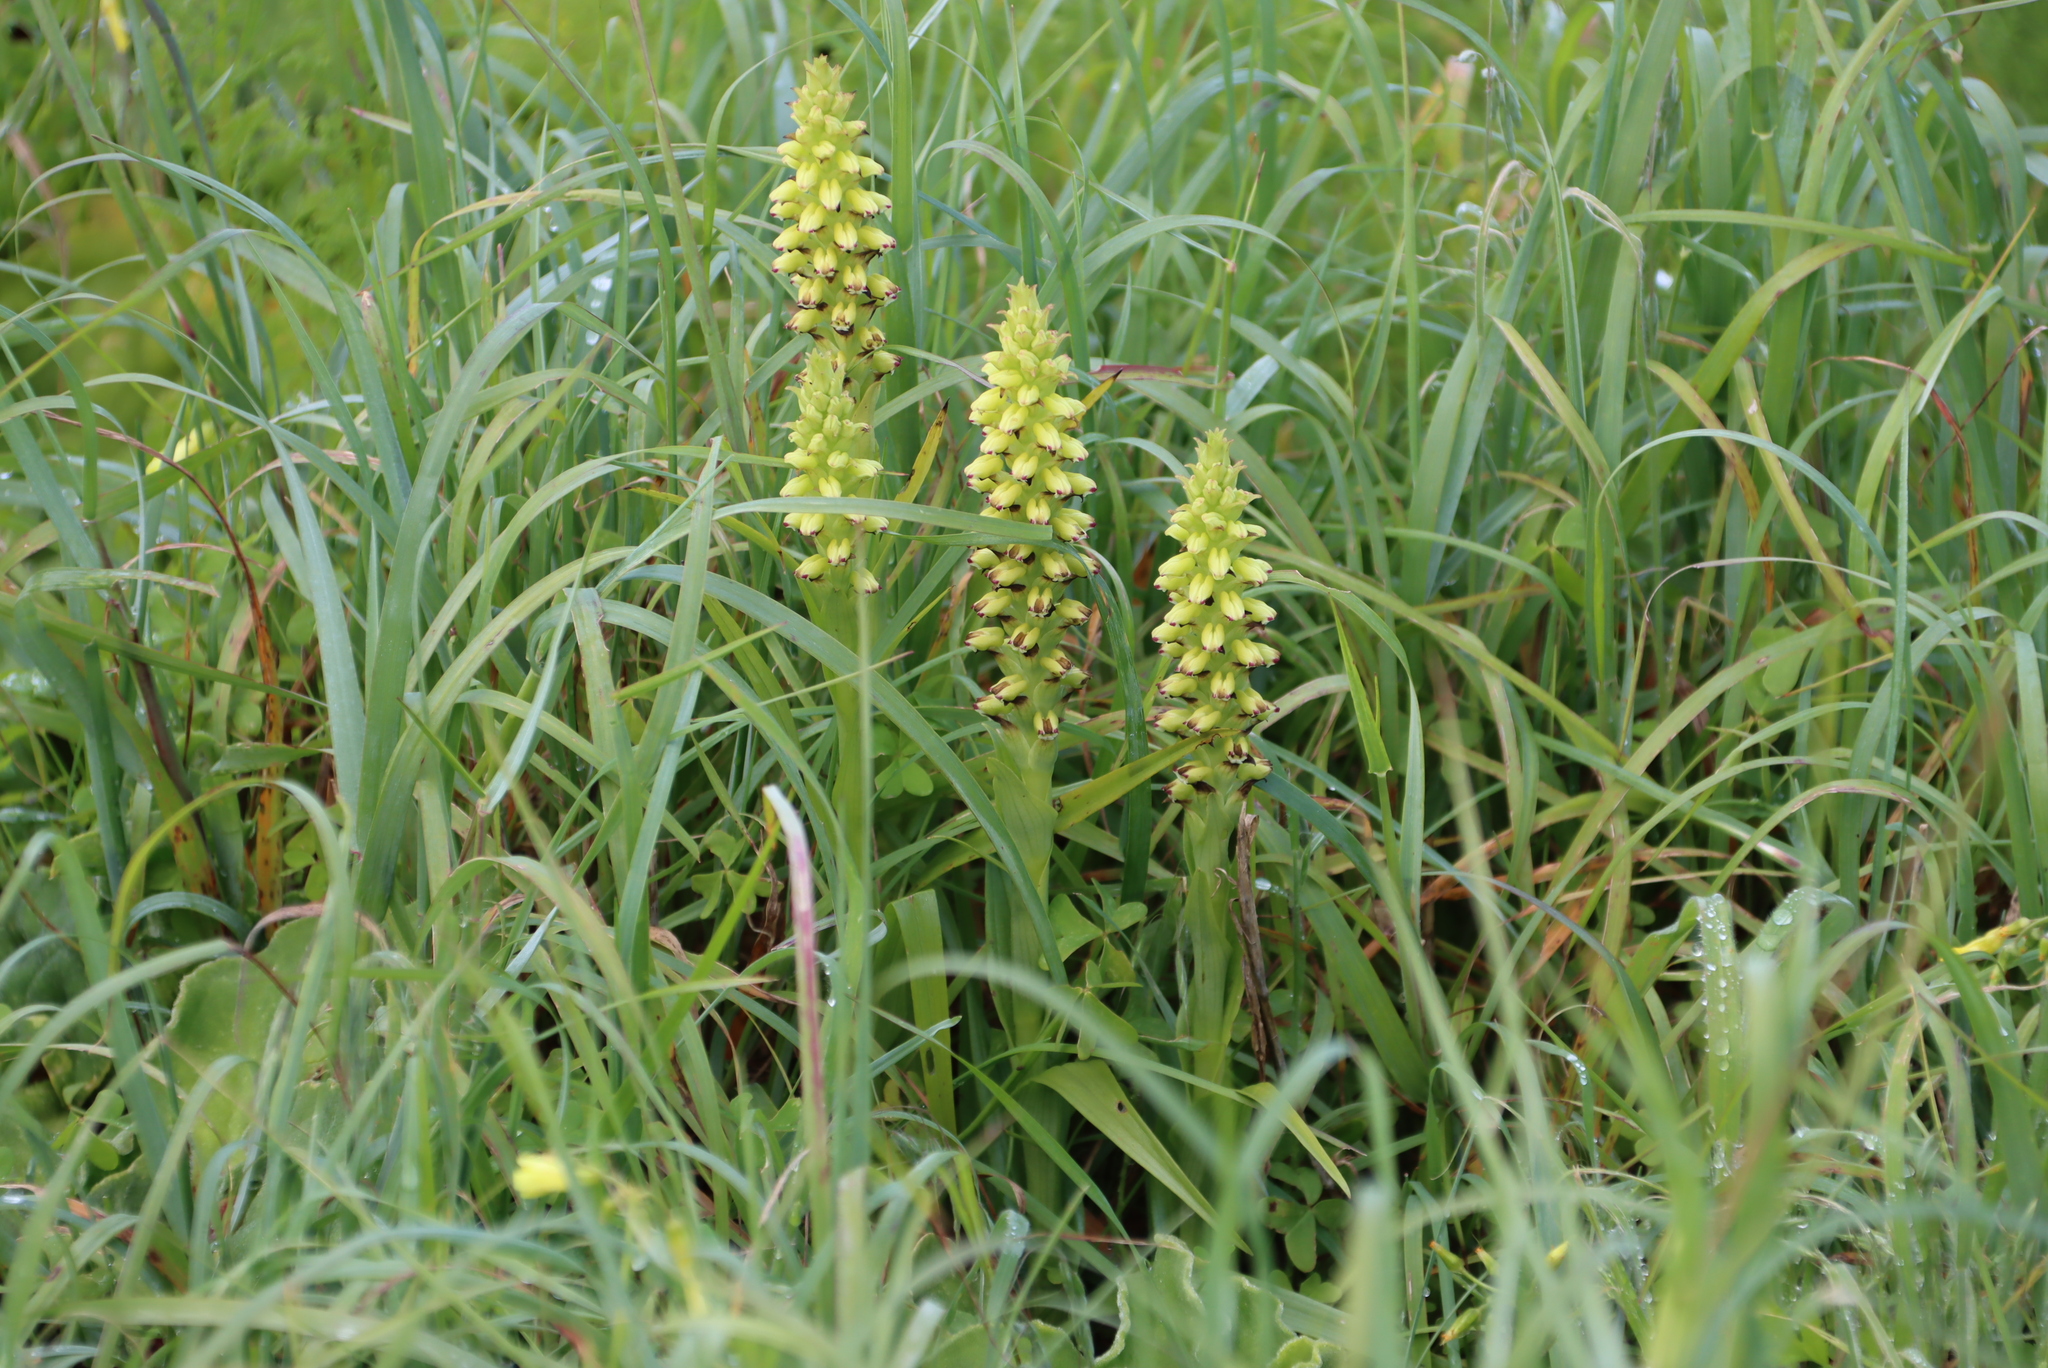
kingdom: Plantae
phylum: Tracheophyta
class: Liliopsida
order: Asparagales
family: Orchidaceae
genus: Corycium
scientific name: Corycium orobanchoides
